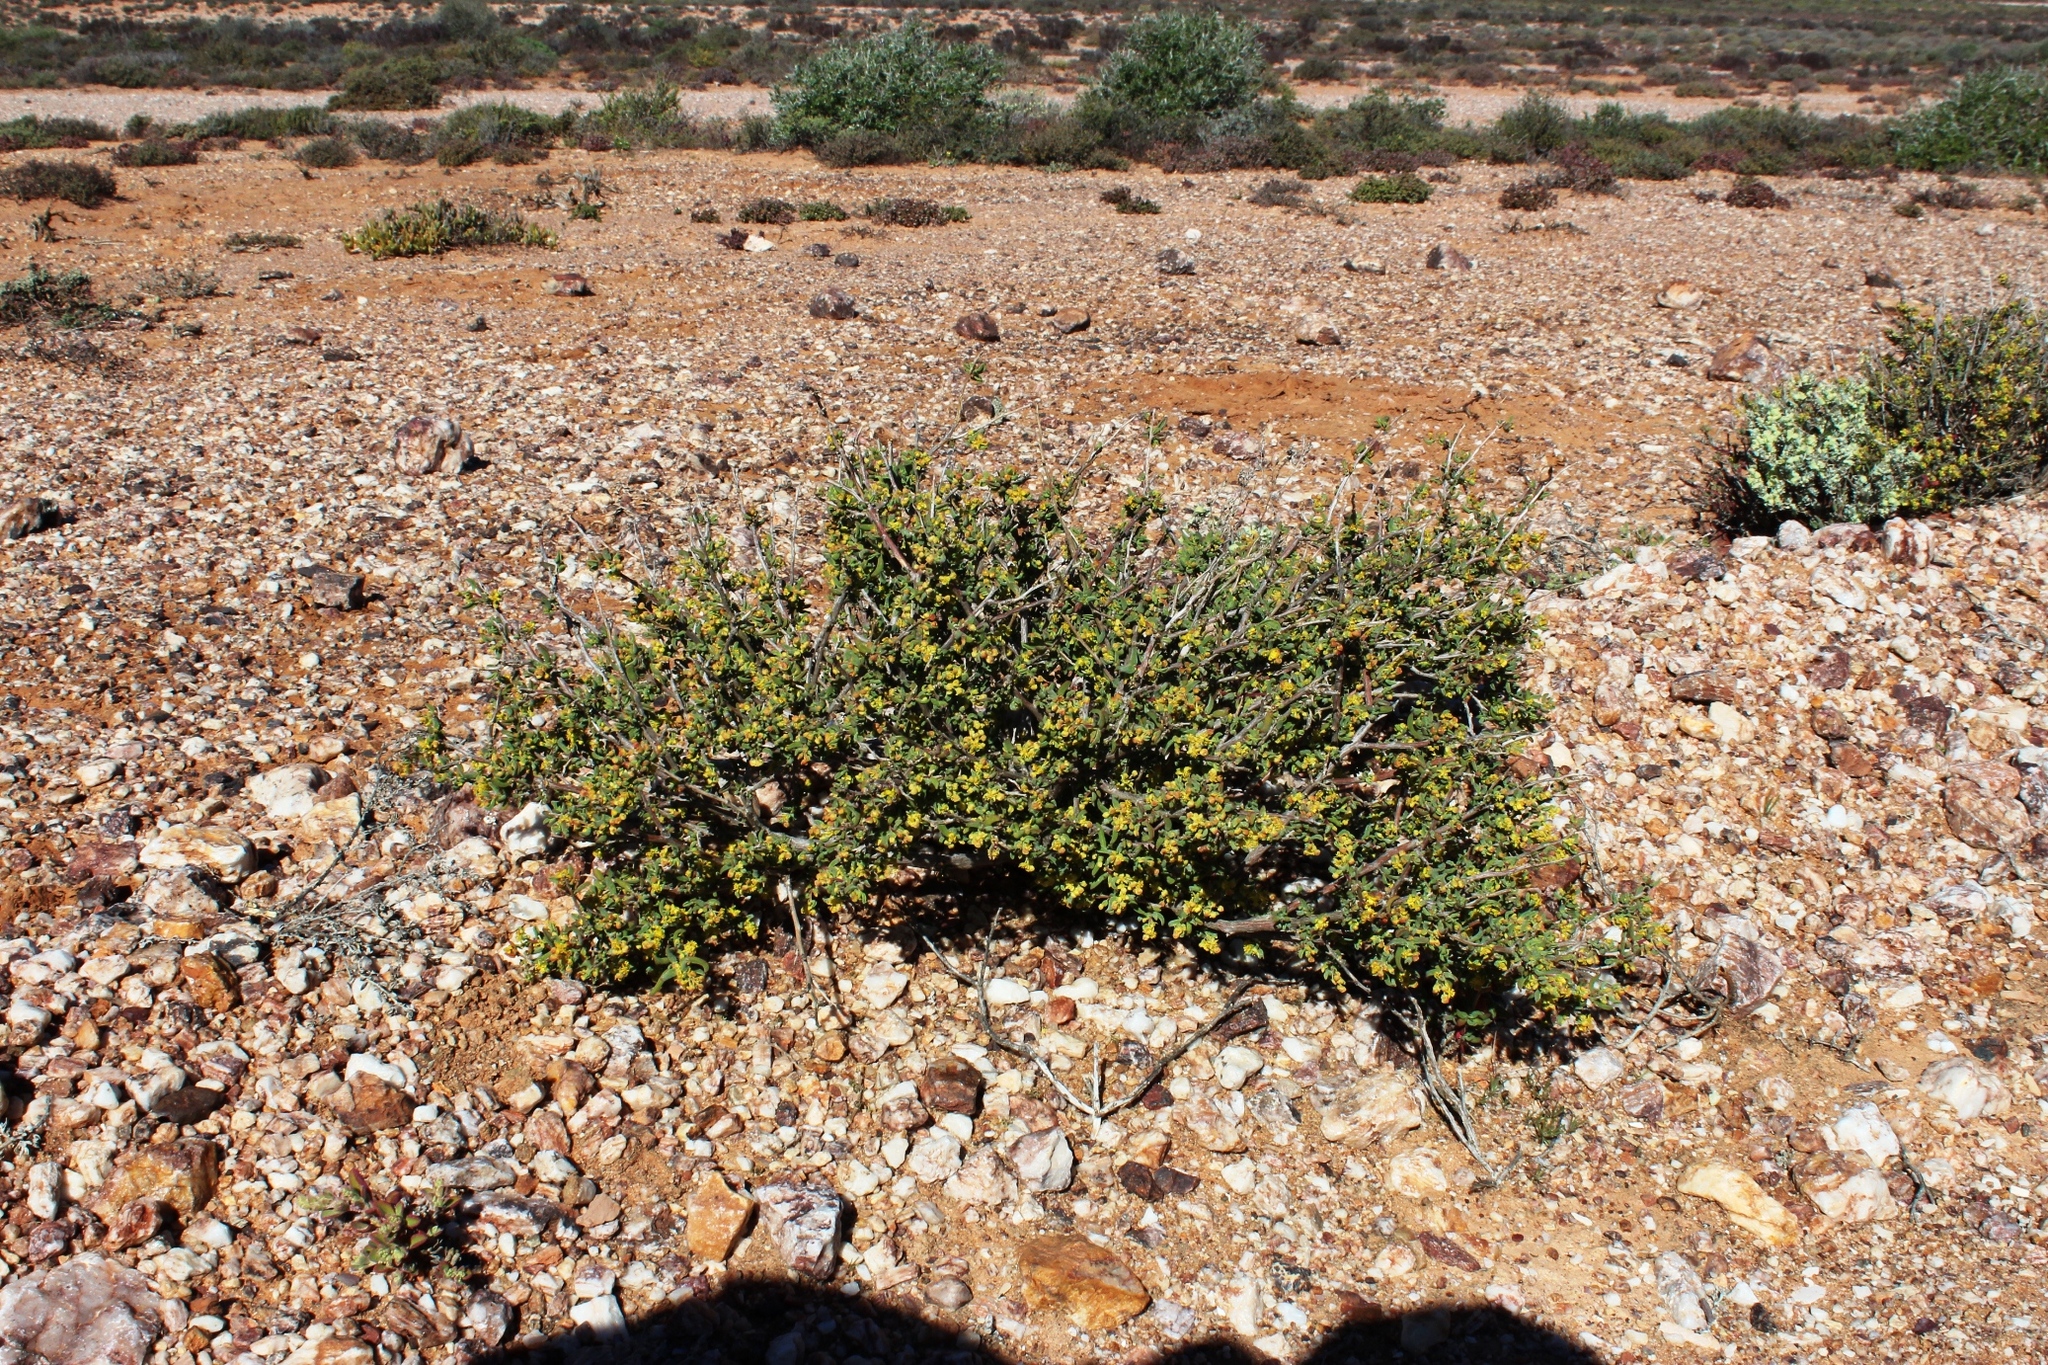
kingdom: Plantae
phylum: Tracheophyta
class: Magnoliopsida
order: Caryophyllales
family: Aizoaceae
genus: Tetragonia
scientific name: Tetragonia fruticosa
